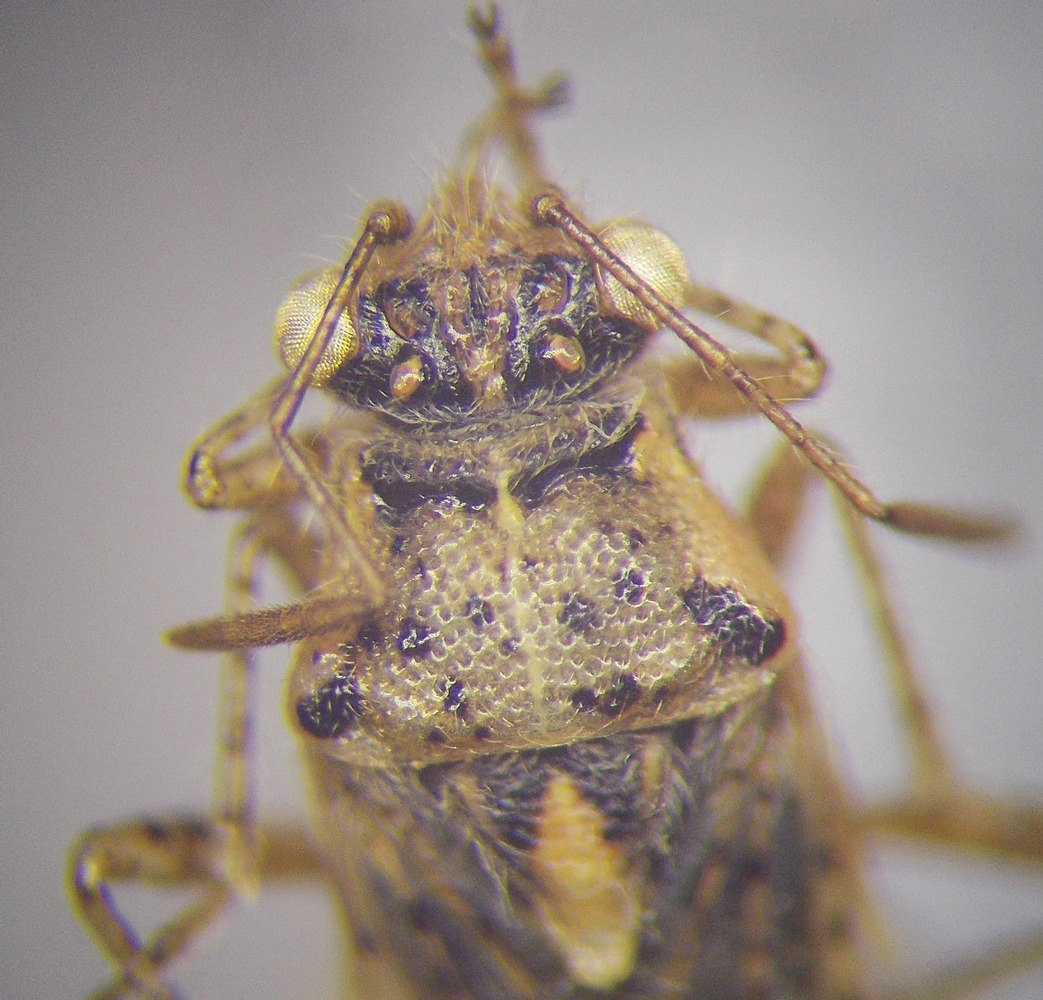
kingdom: Animalia
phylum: Arthropoda
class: Insecta
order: Hemiptera
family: Rhopalidae
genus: Brachycarenus
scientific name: Brachycarenus tigrinus
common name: Scentless plant bug
